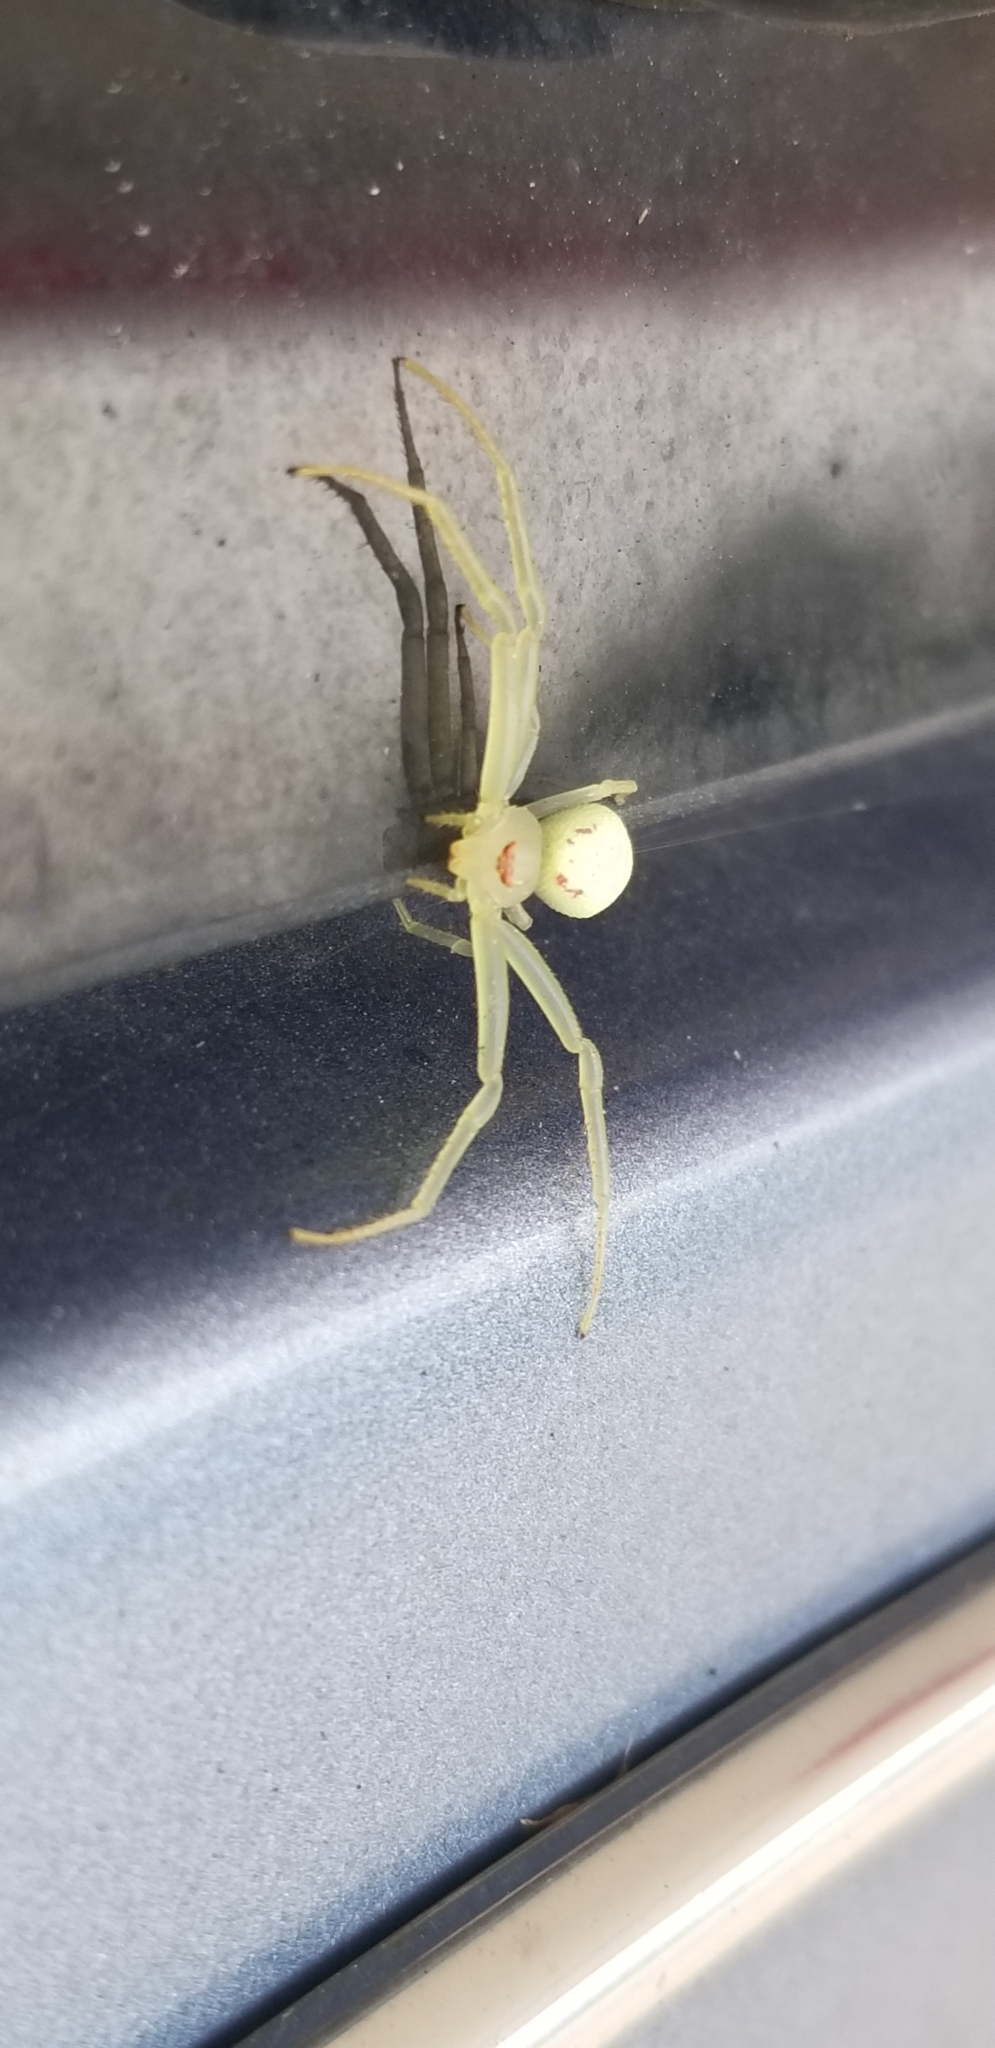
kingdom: Animalia
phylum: Arthropoda
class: Arachnida
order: Araneae
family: Thomisidae
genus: Misumessus
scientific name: Misumessus oblongus
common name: American green crab spider
